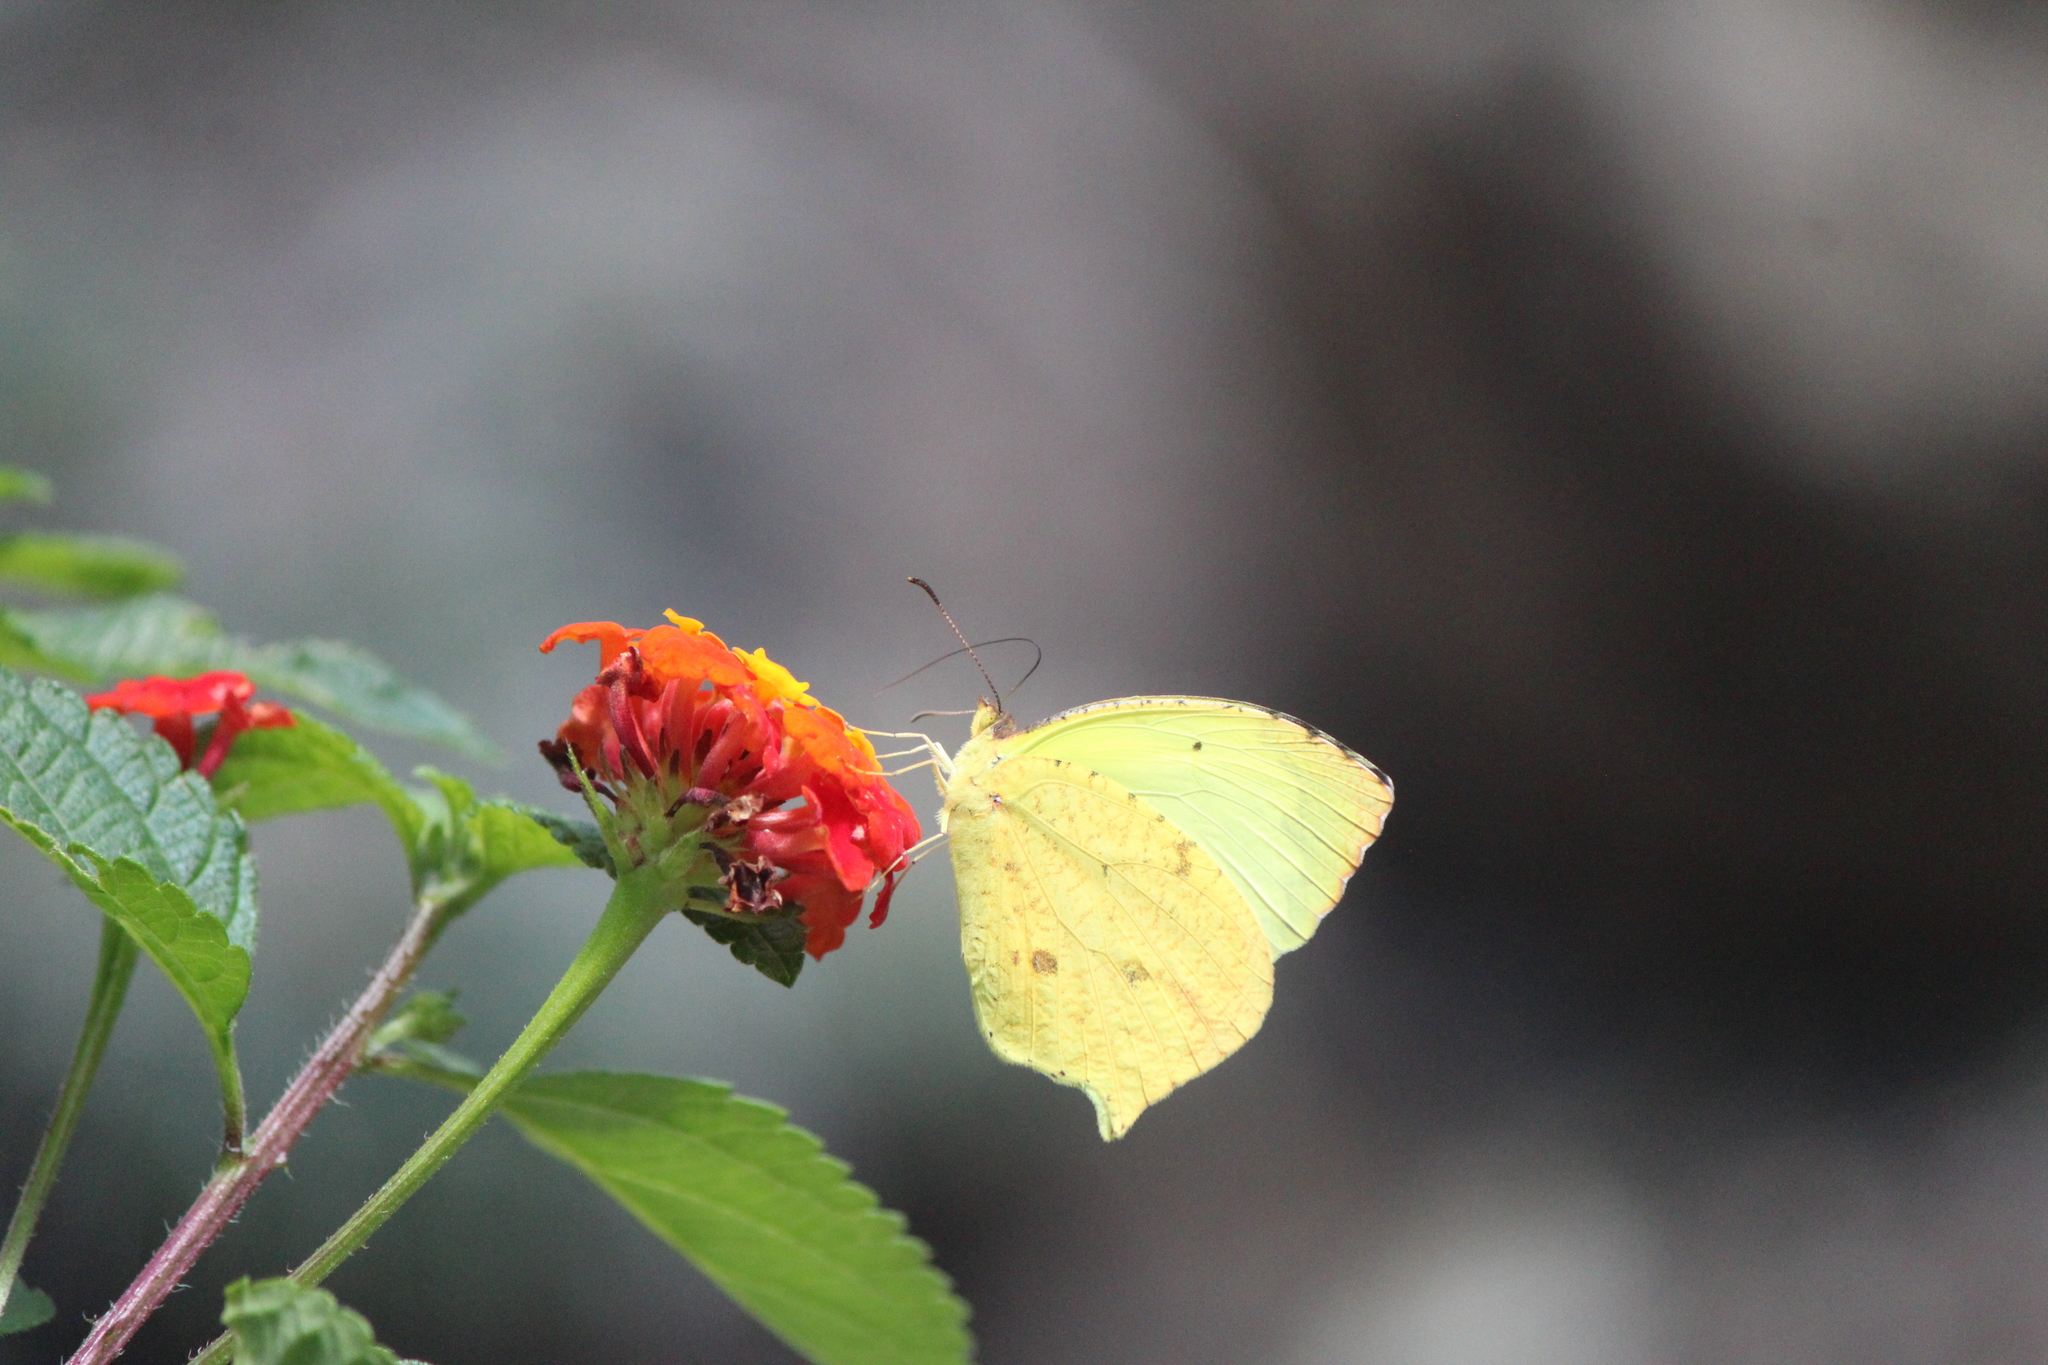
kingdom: Animalia
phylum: Arthropoda
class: Insecta
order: Lepidoptera
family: Pieridae
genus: Abaeis
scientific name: Abaeis salome
